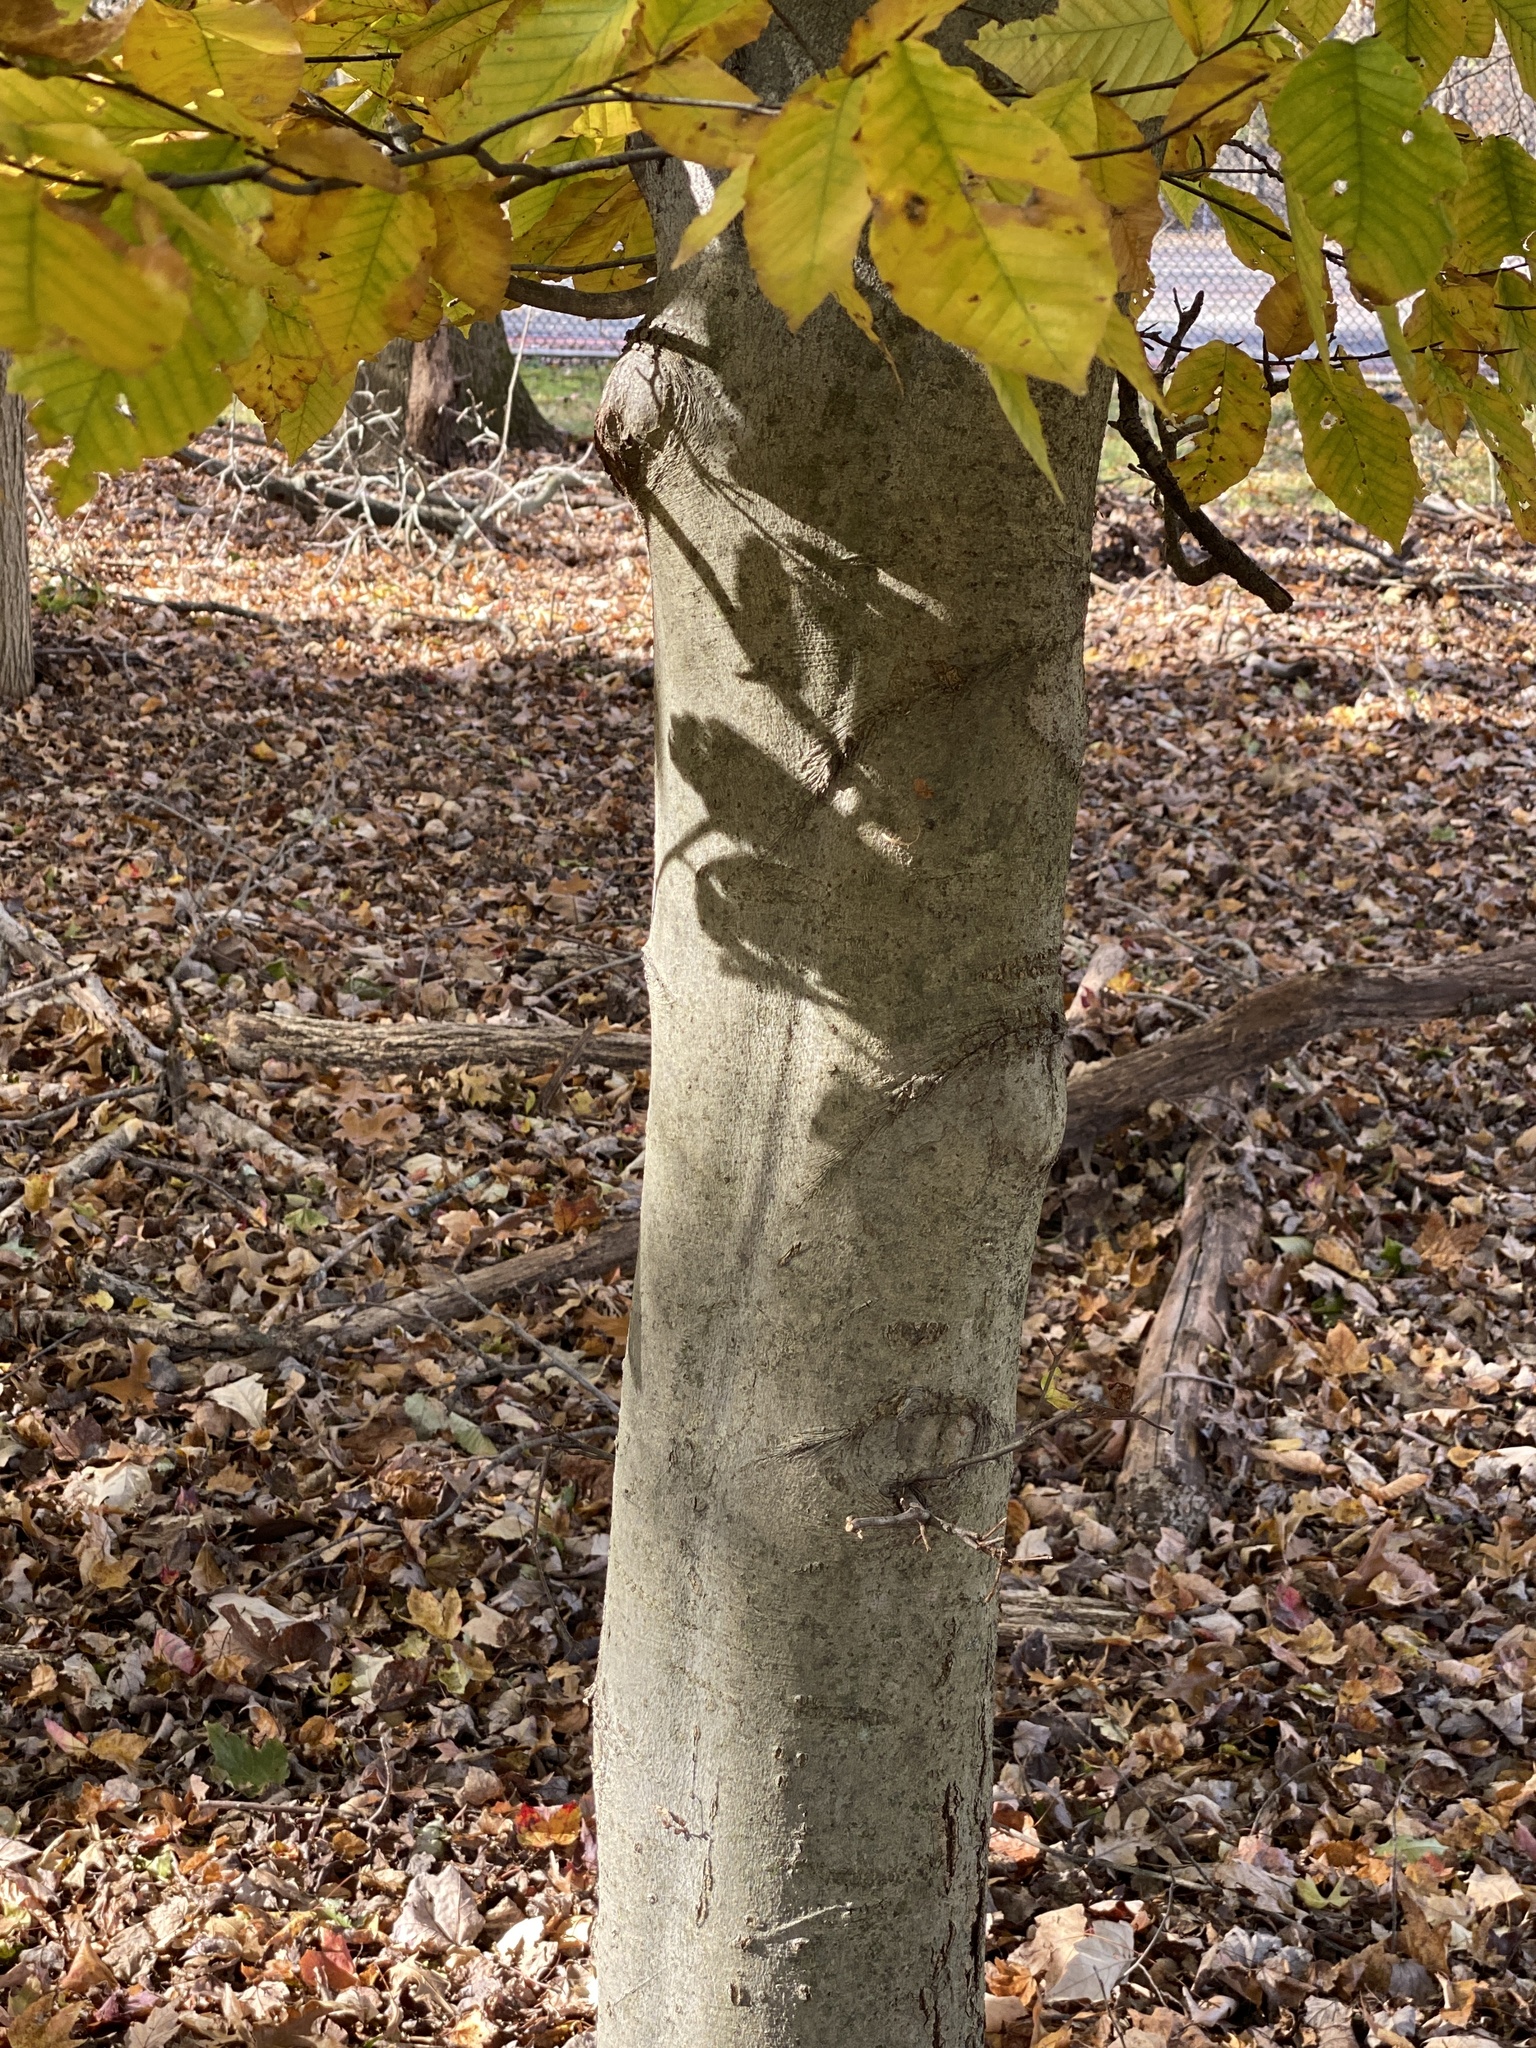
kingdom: Plantae
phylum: Tracheophyta
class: Magnoliopsida
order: Fagales
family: Fagaceae
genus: Fagus
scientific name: Fagus grandifolia
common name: American beech
